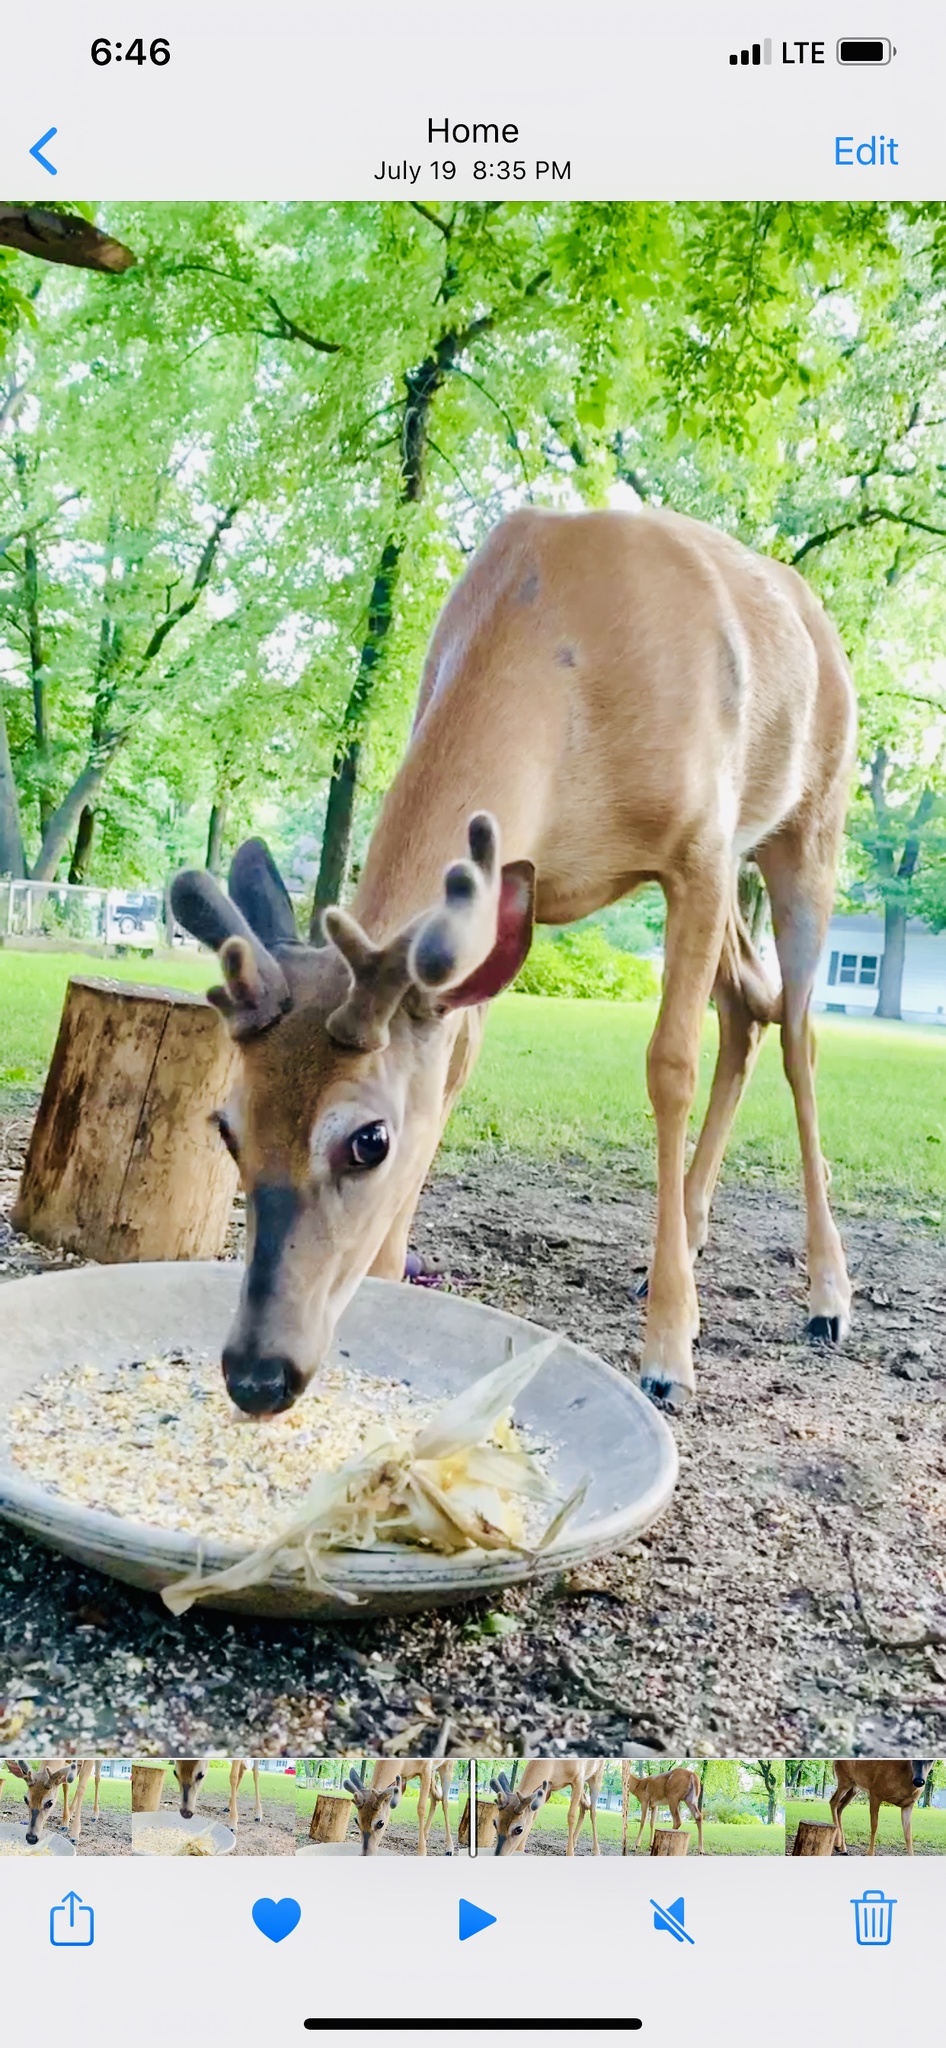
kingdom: Animalia
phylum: Chordata
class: Mammalia
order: Artiodactyla
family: Cervidae
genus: Odocoileus
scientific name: Odocoileus virginianus
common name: White-tailed deer
